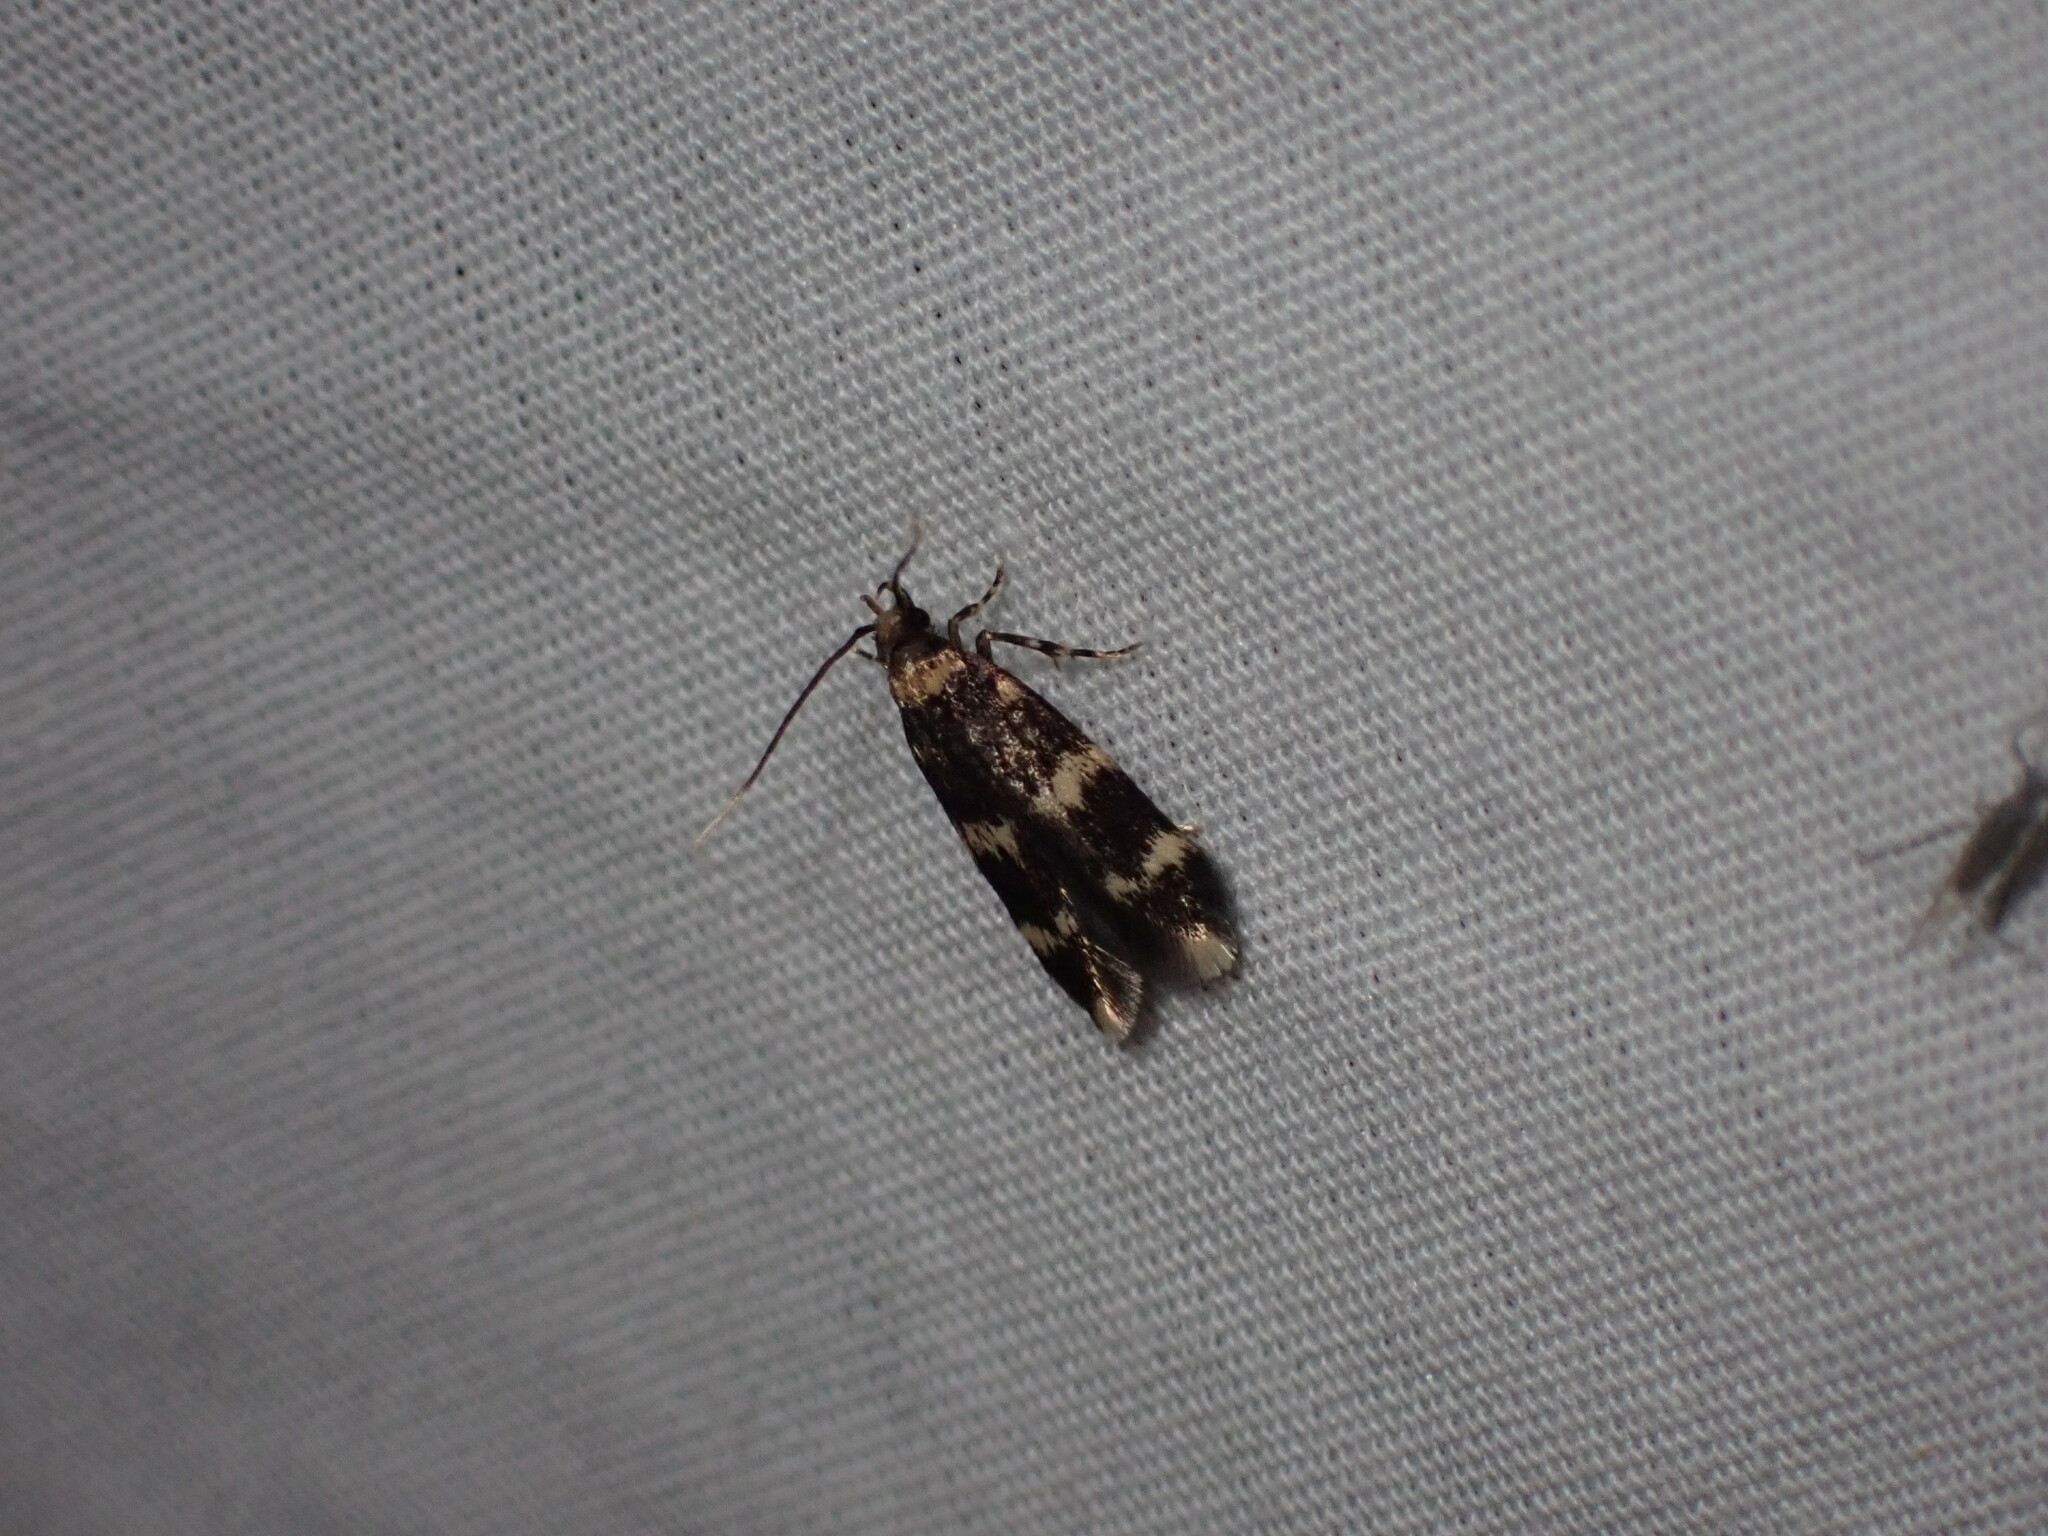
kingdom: Animalia
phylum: Arthropoda
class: Insecta
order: Lepidoptera
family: Autostichidae
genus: Oegoconia
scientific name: Oegoconia quadripuncta
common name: Four-spotted obscure
